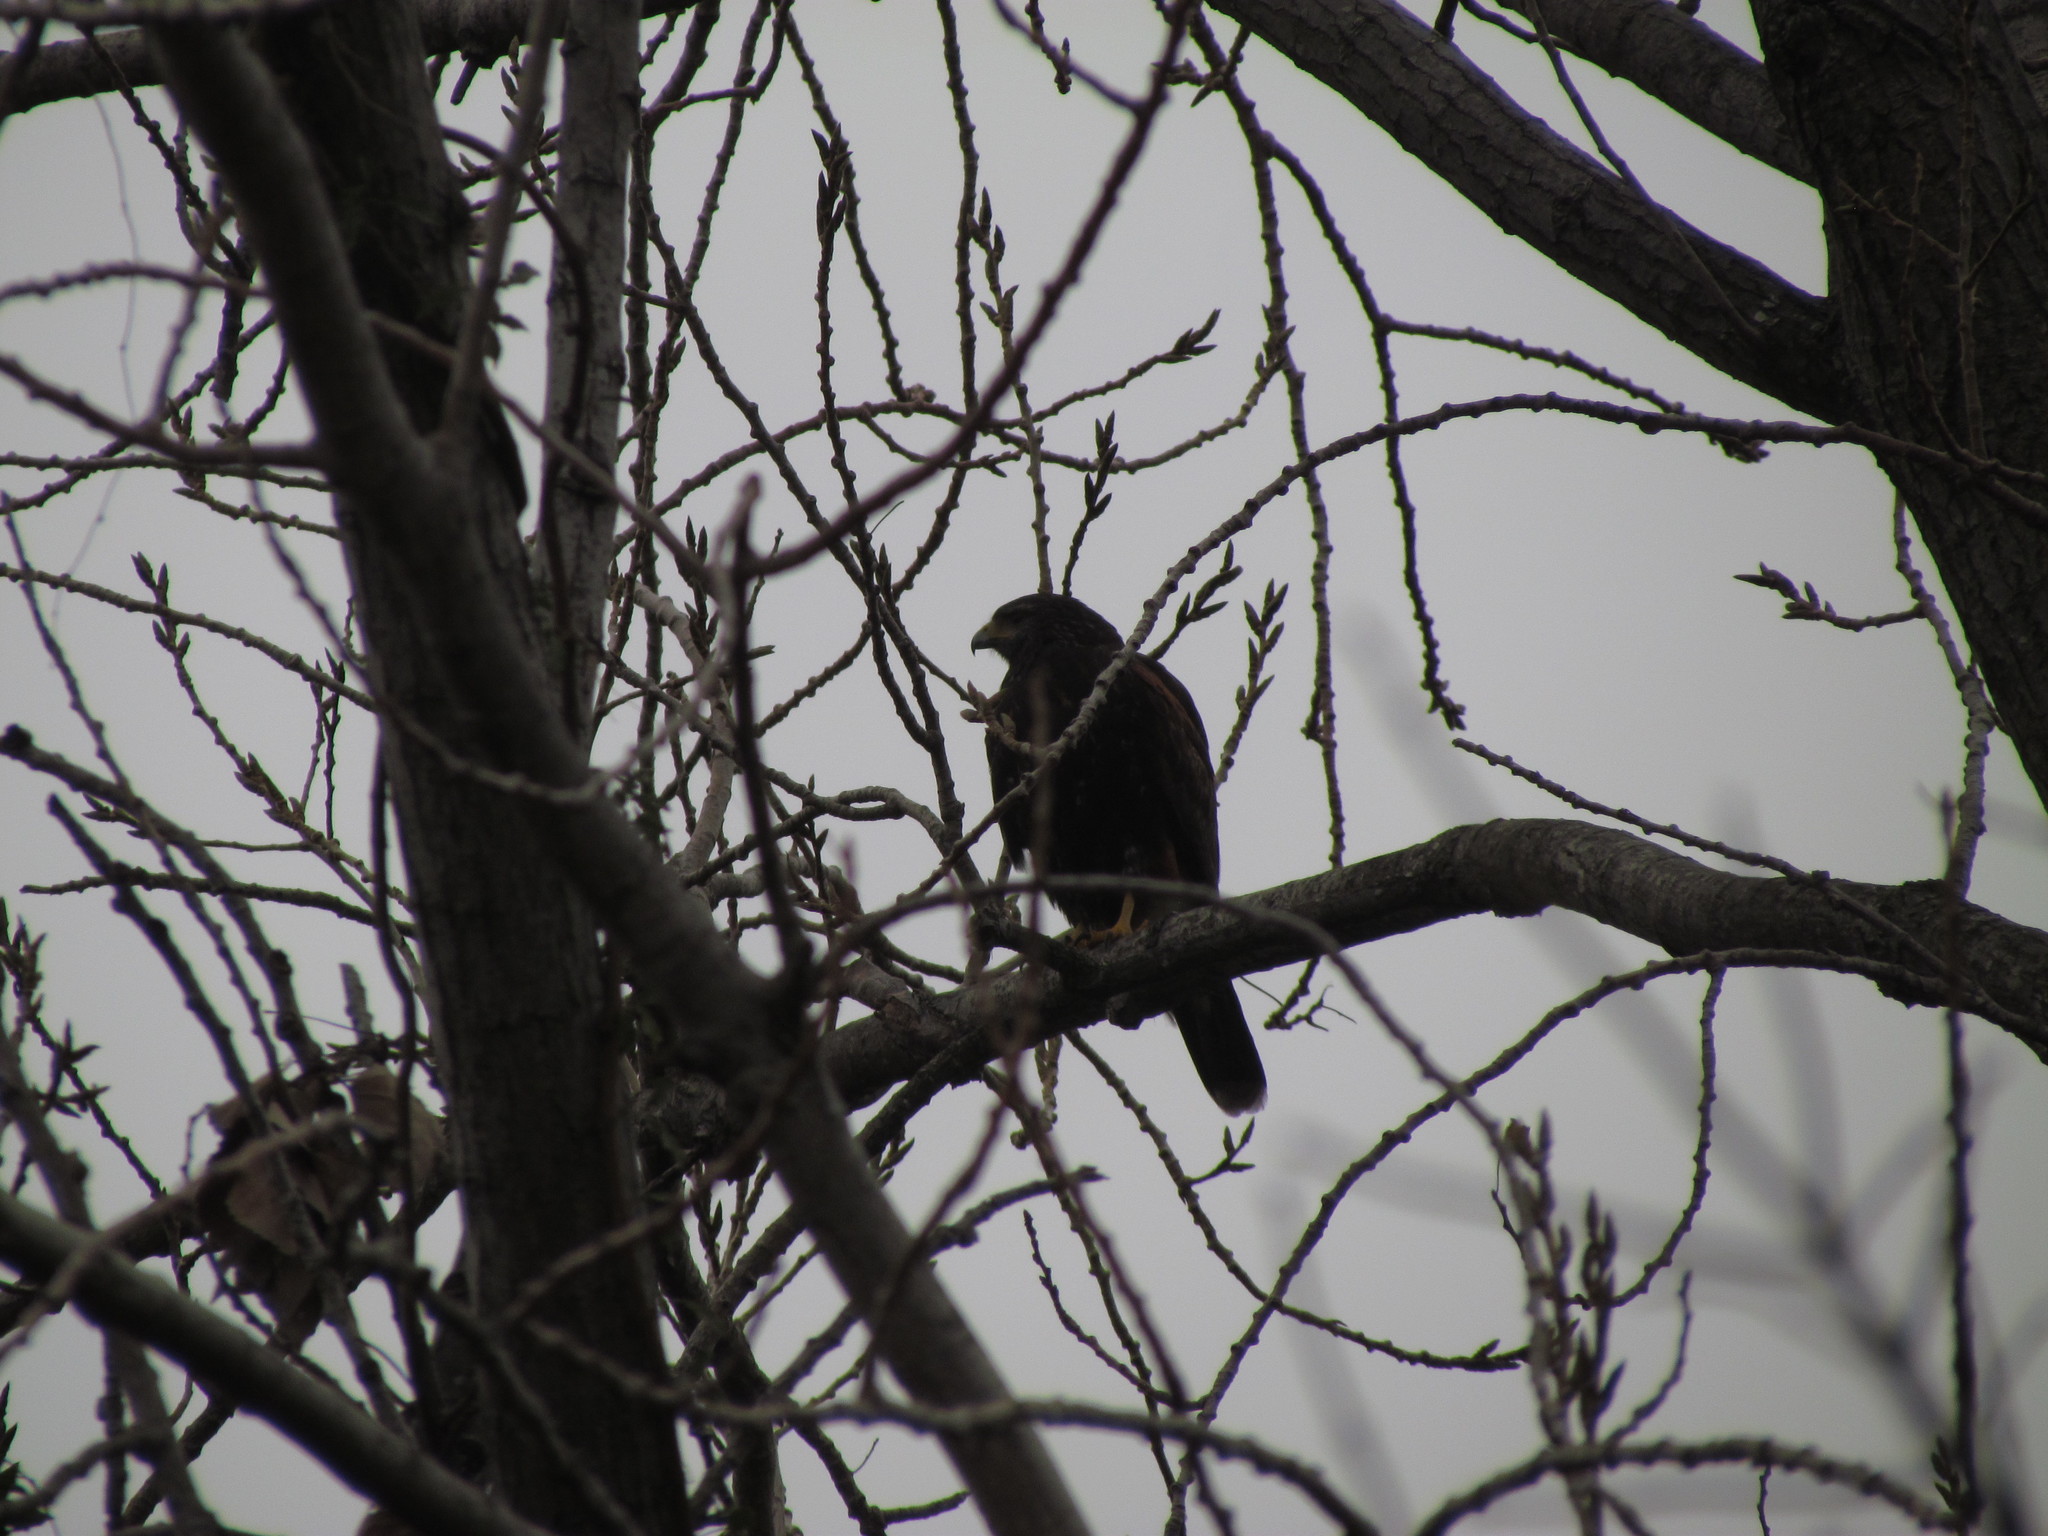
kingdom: Animalia
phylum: Chordata
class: Aves
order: Accipitriformes
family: Accipitridae
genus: Parabuteo
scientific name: Parabuteo unicinctus
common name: Harris's hawk
